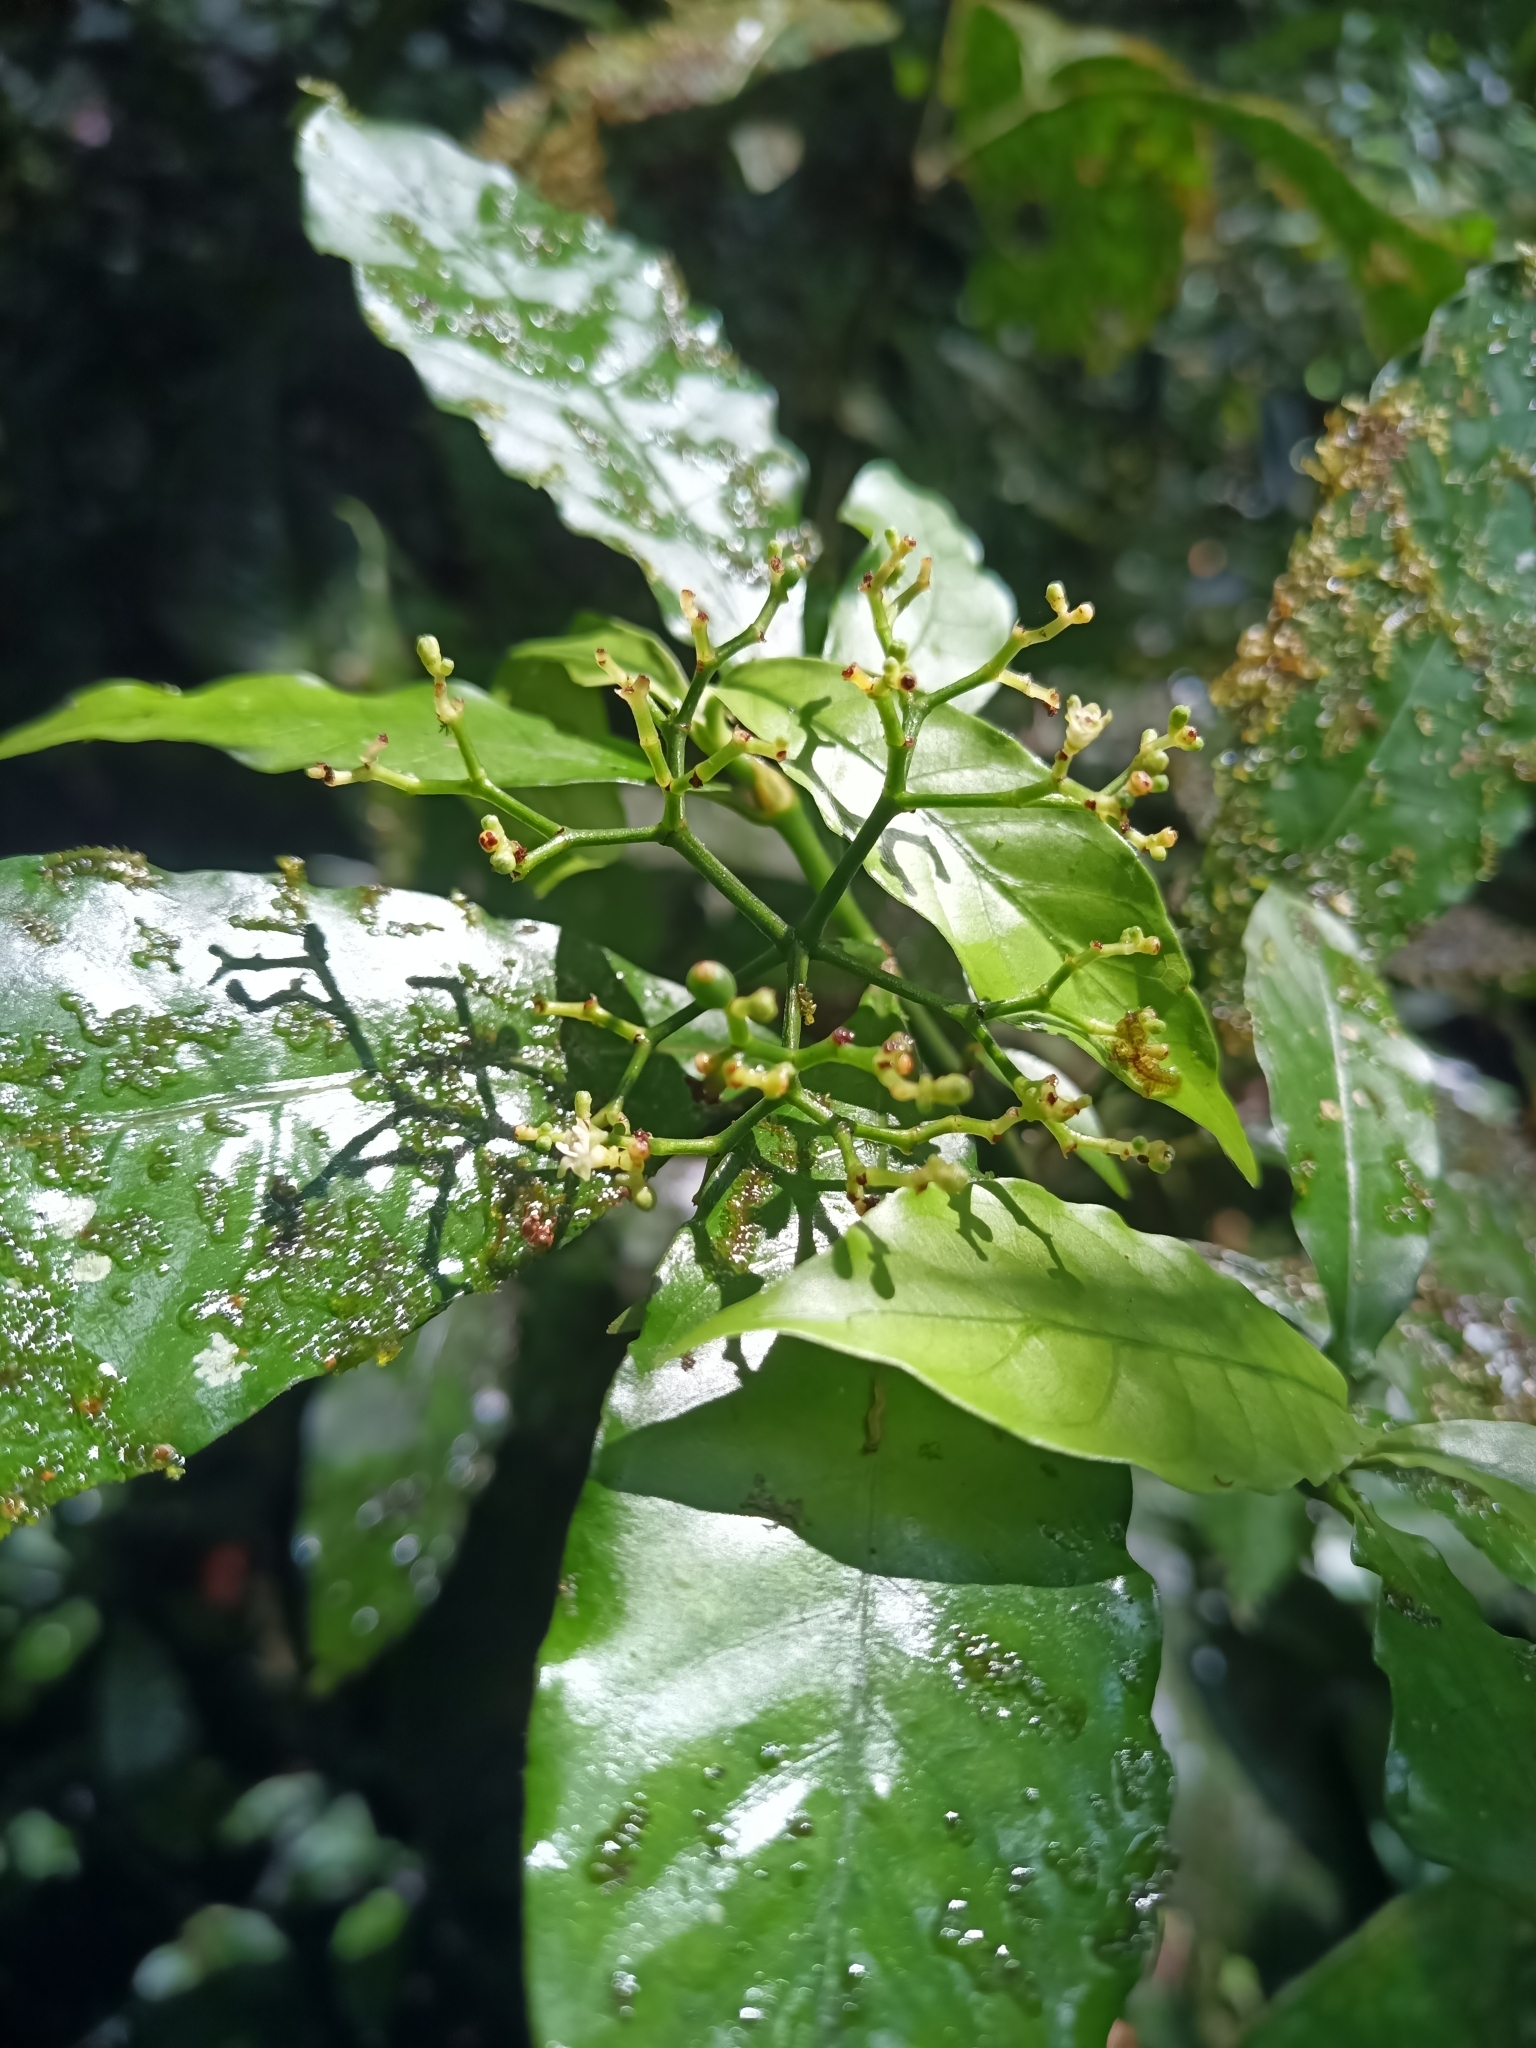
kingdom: Plantae
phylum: Tracheophyta
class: Magnoliopsida
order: Gentianales
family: Rubiaceae
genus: Psychotria
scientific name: Psychotria borjensis
